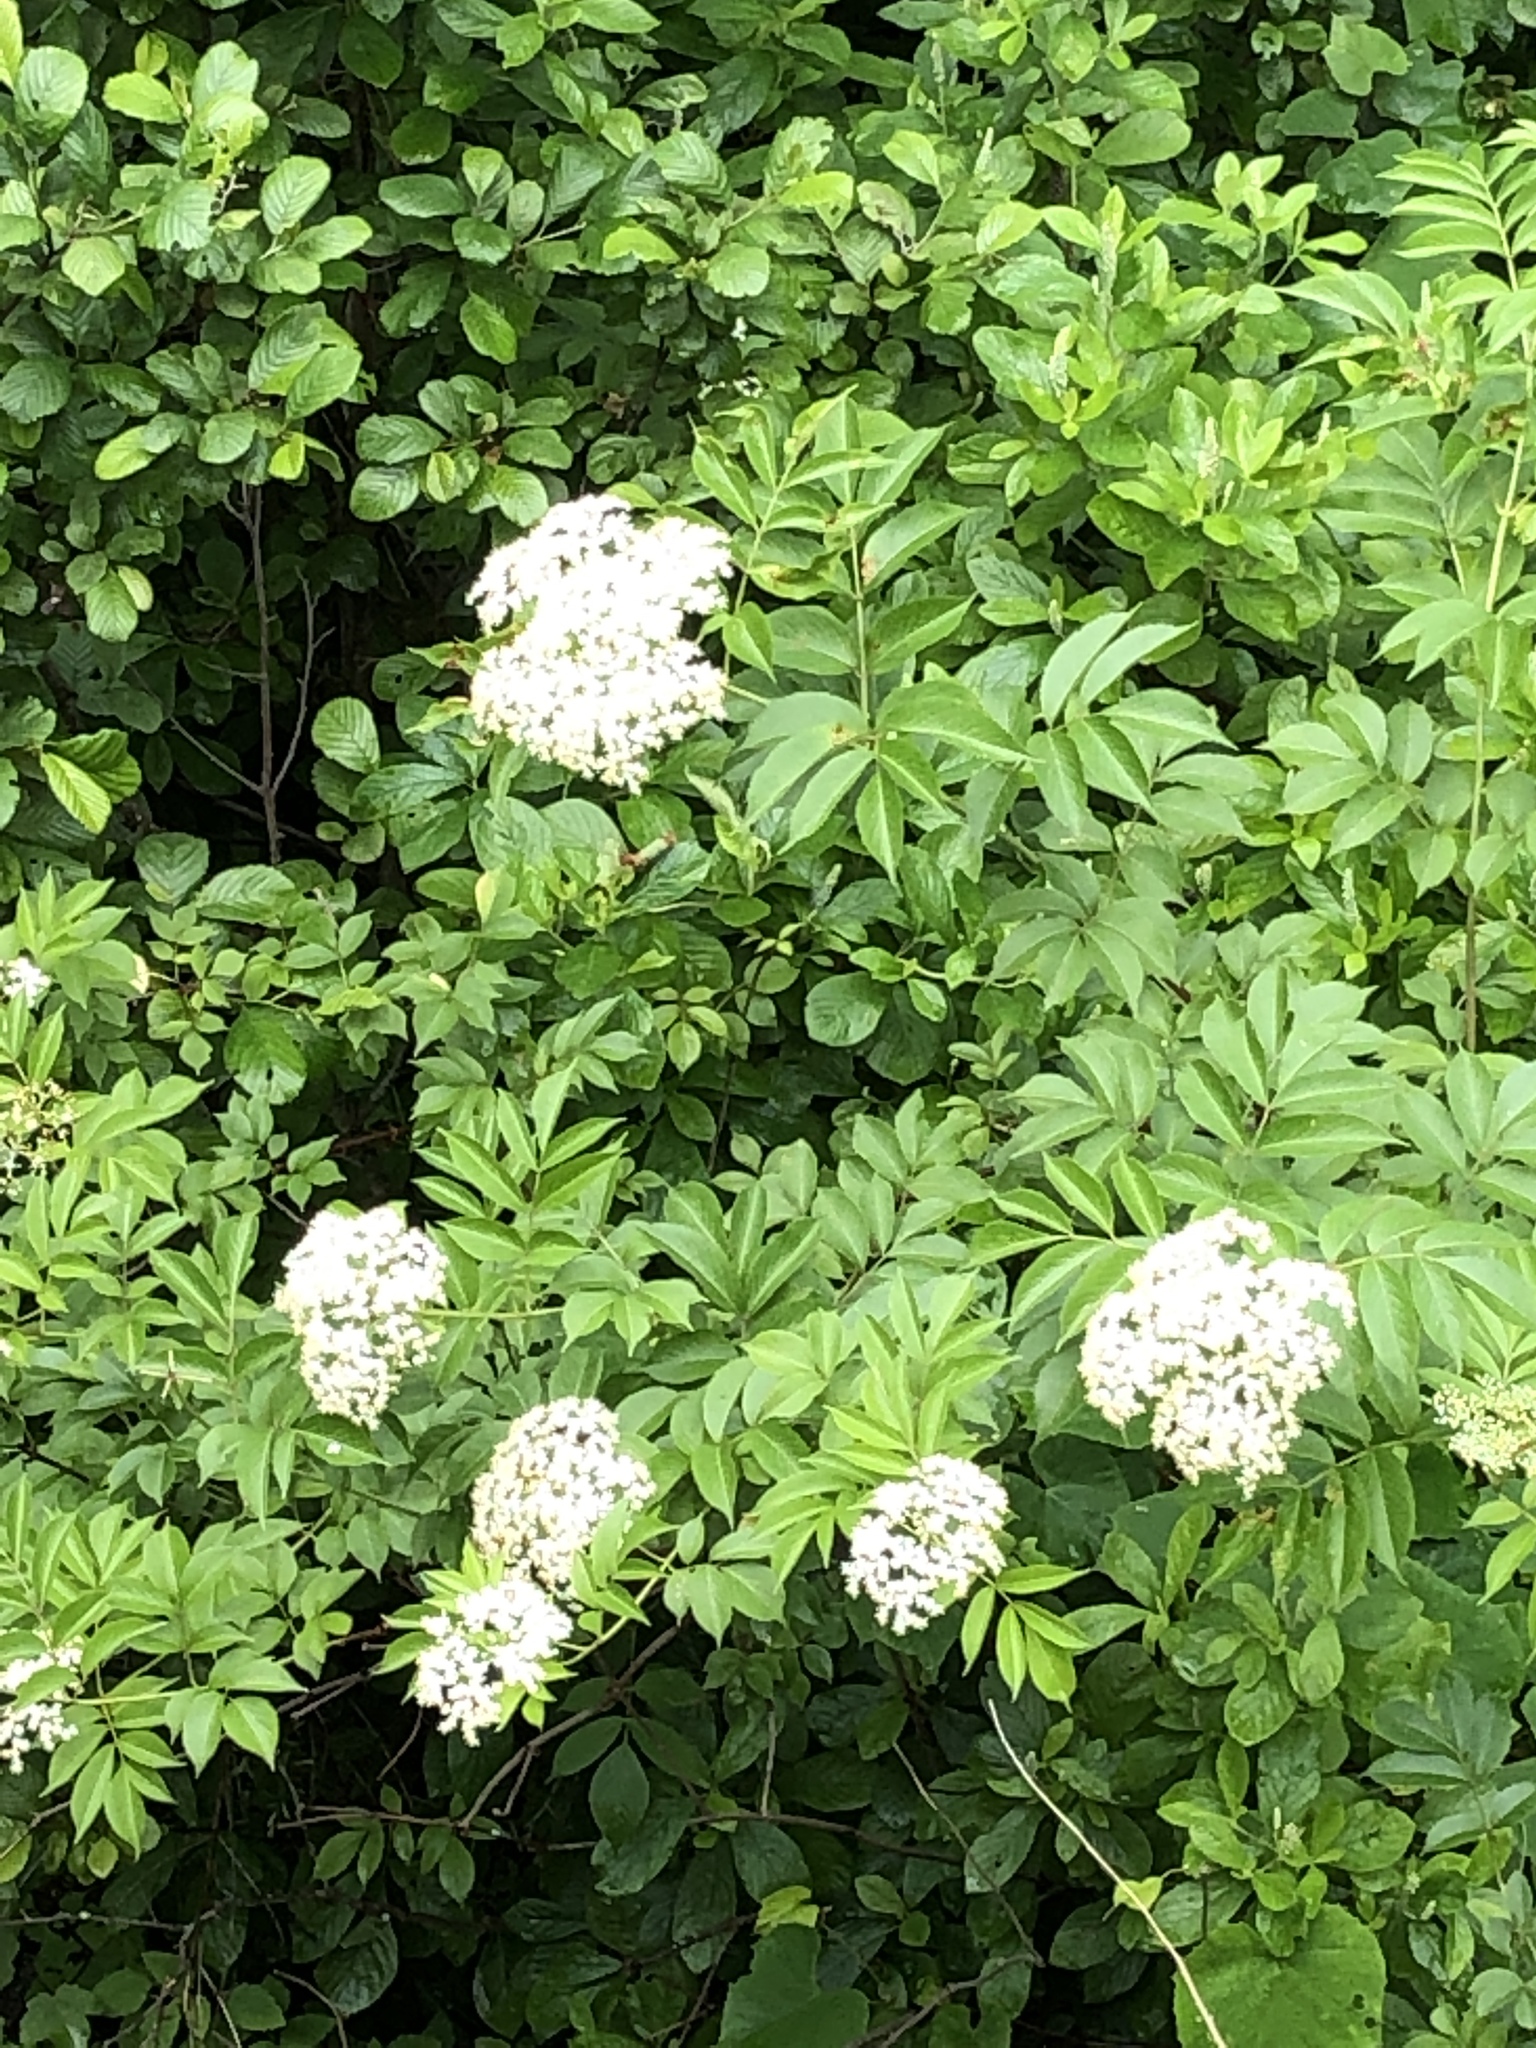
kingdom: Plantae
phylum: Tracheophyta
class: Magnoliopsida
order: Dipsacales
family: Viburnaceae
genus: Sambucus
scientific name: Sambucus canadensis
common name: American elder
